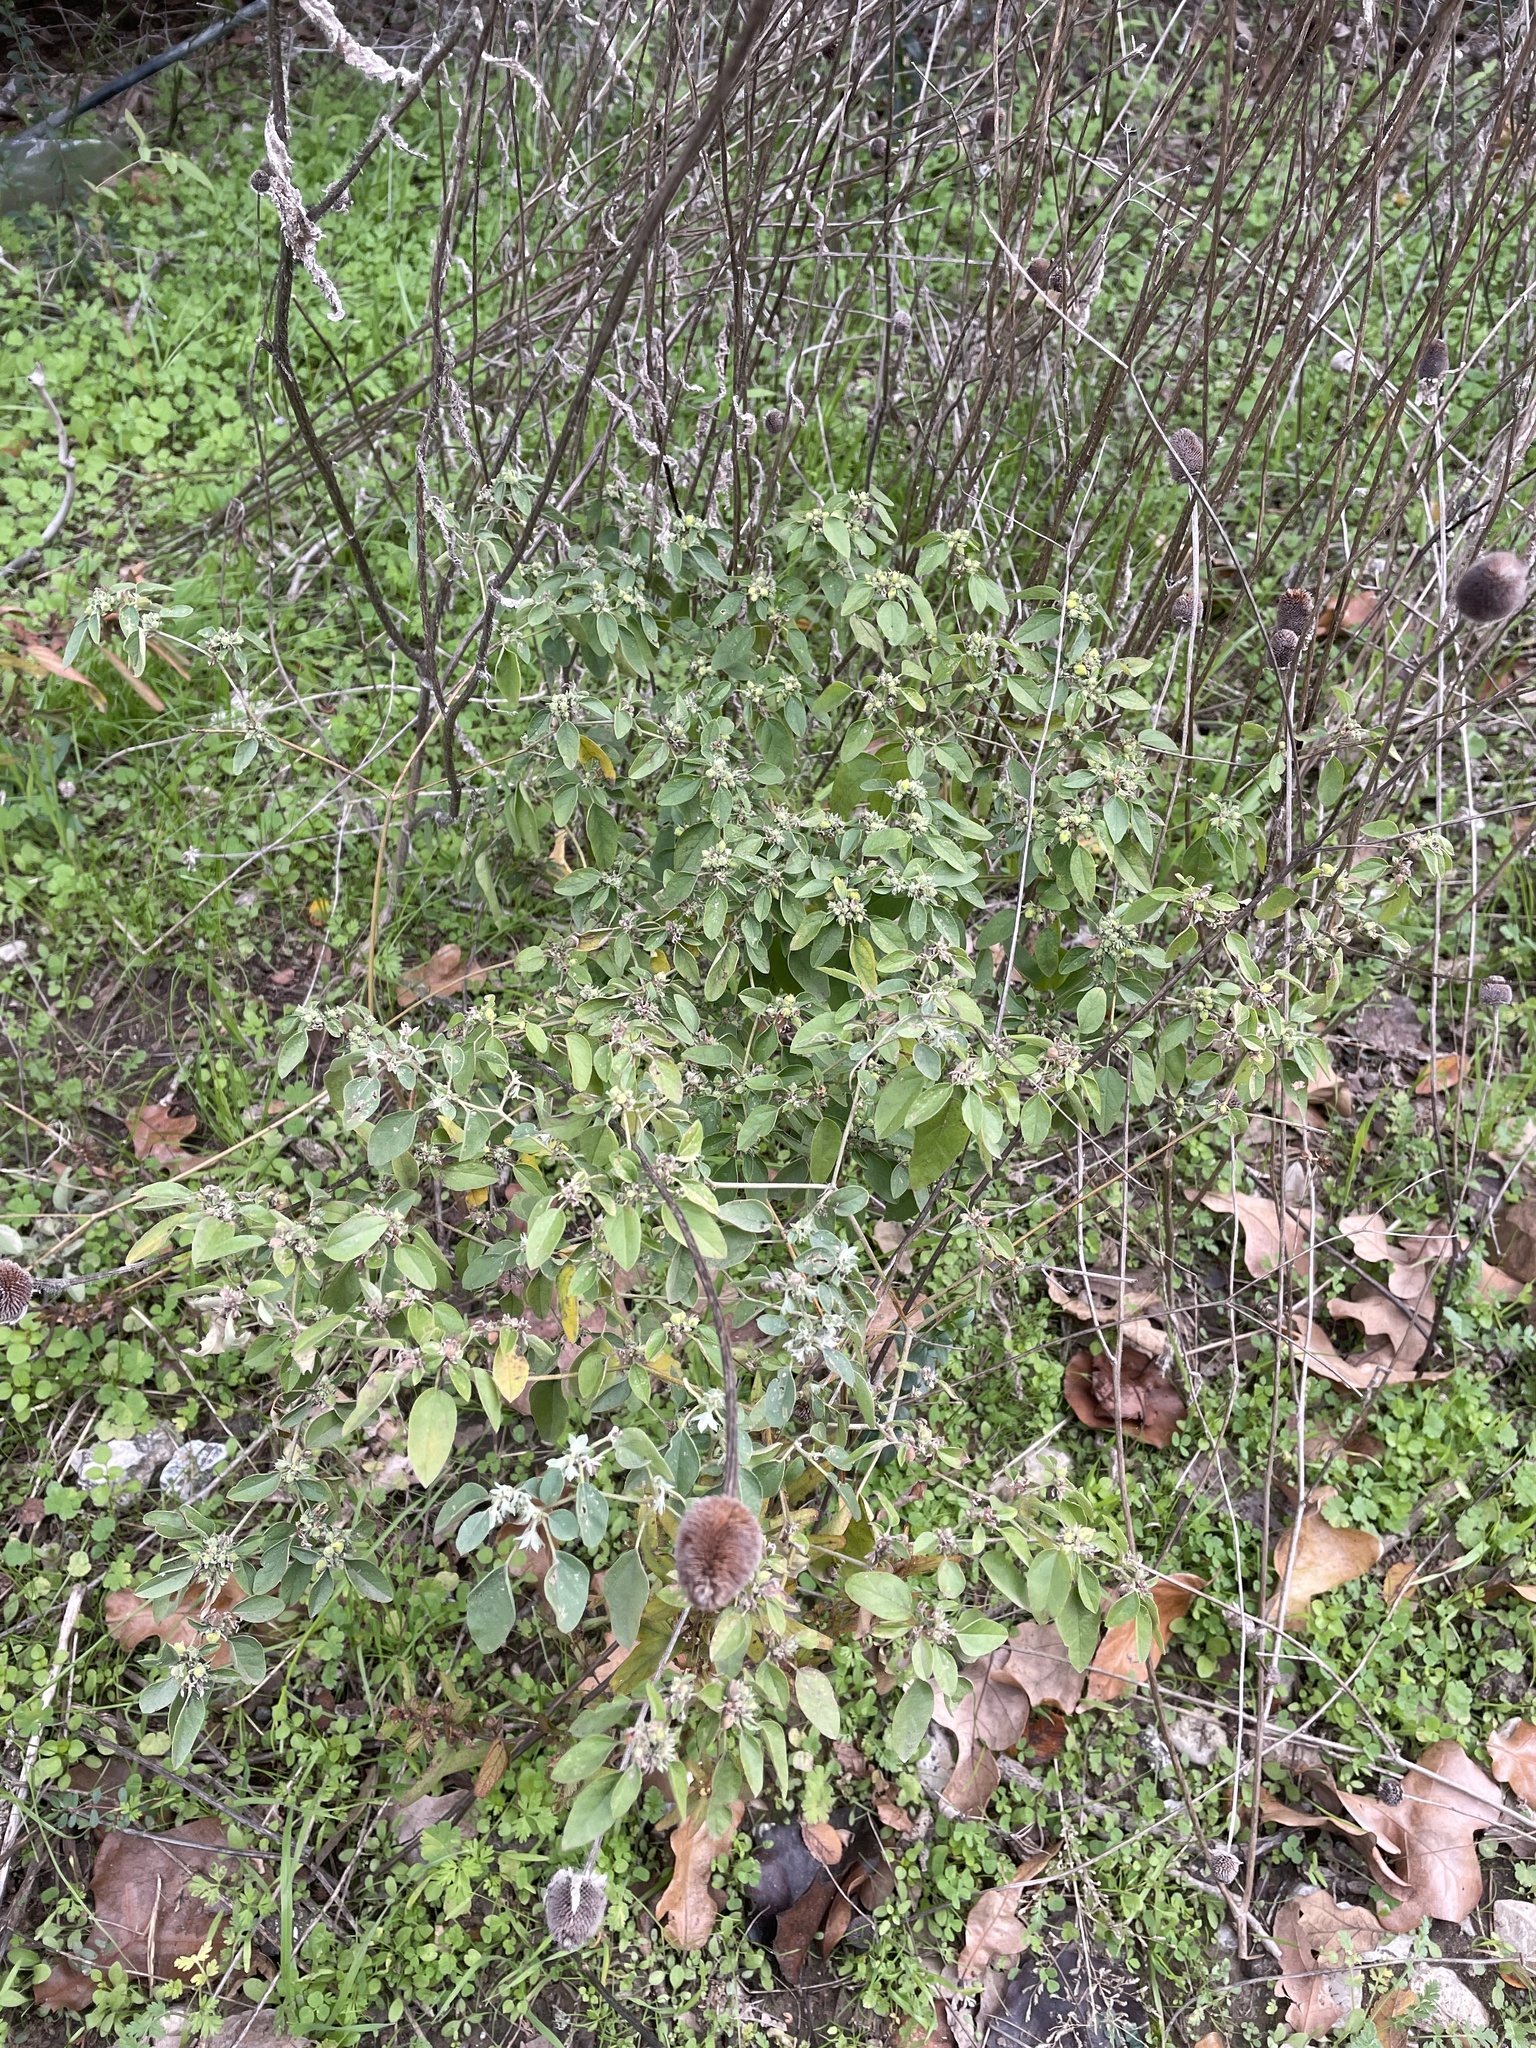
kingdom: Plantae
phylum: Tracheophyta
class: Magnoliopsida
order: Malpighiales
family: Euphorbiaceae
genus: Croton
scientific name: Croton monanthogynus
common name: One-seed croton
